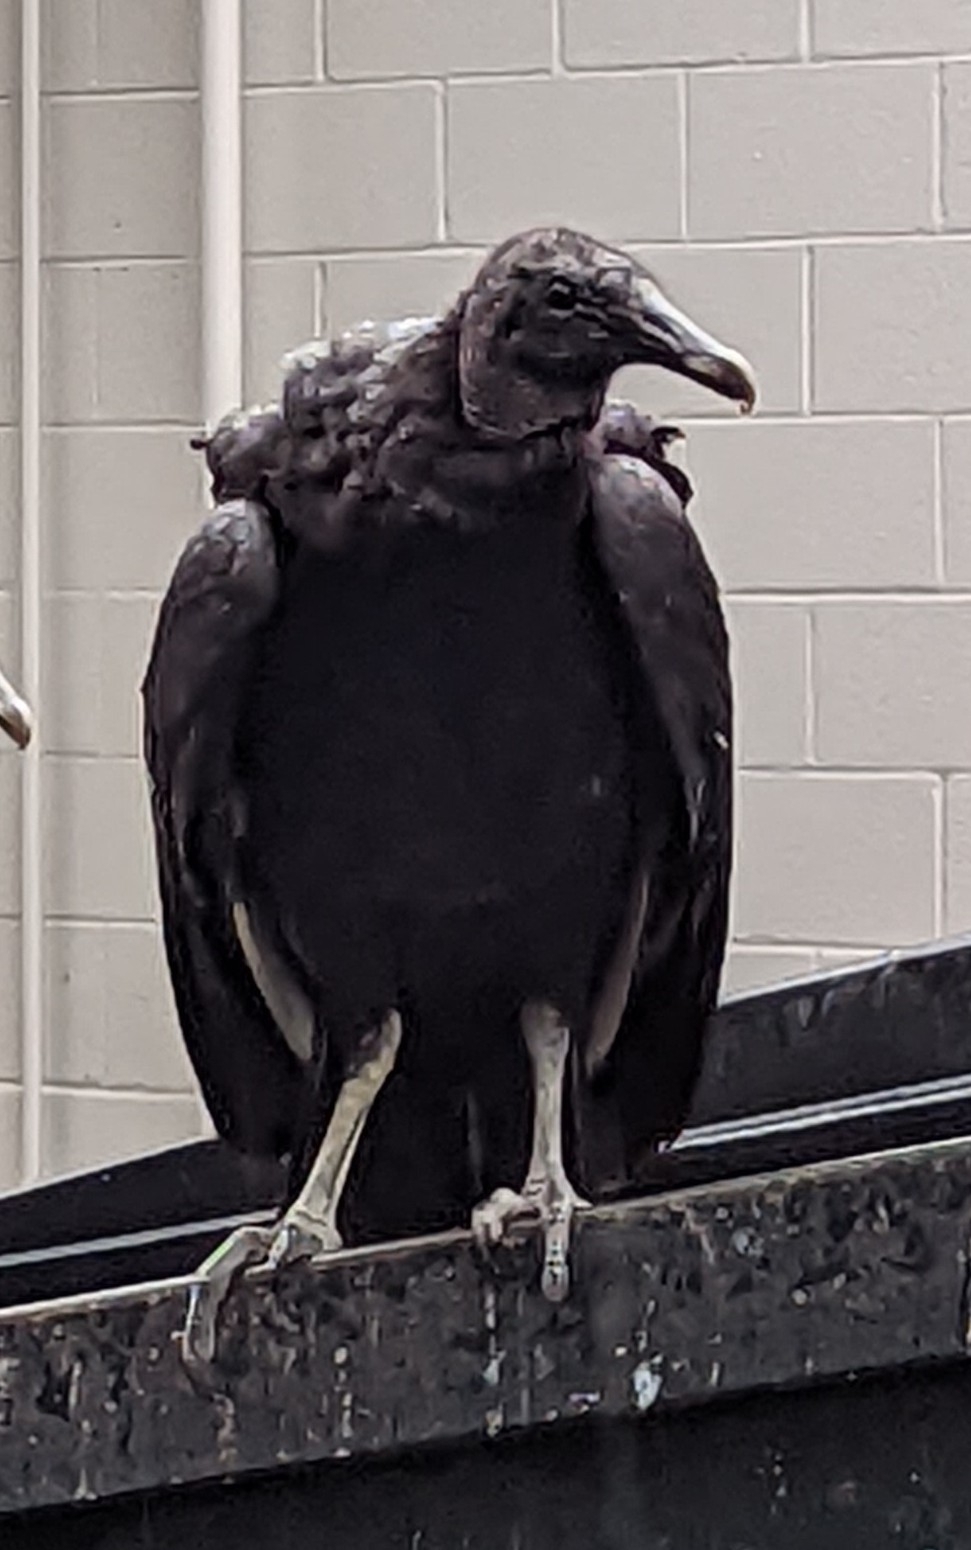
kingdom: Animalia
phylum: Chordata
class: Aves
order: Accipitriformes
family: Cathartidae
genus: Coragyps
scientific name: Coragyps atratus
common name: Black vulture
